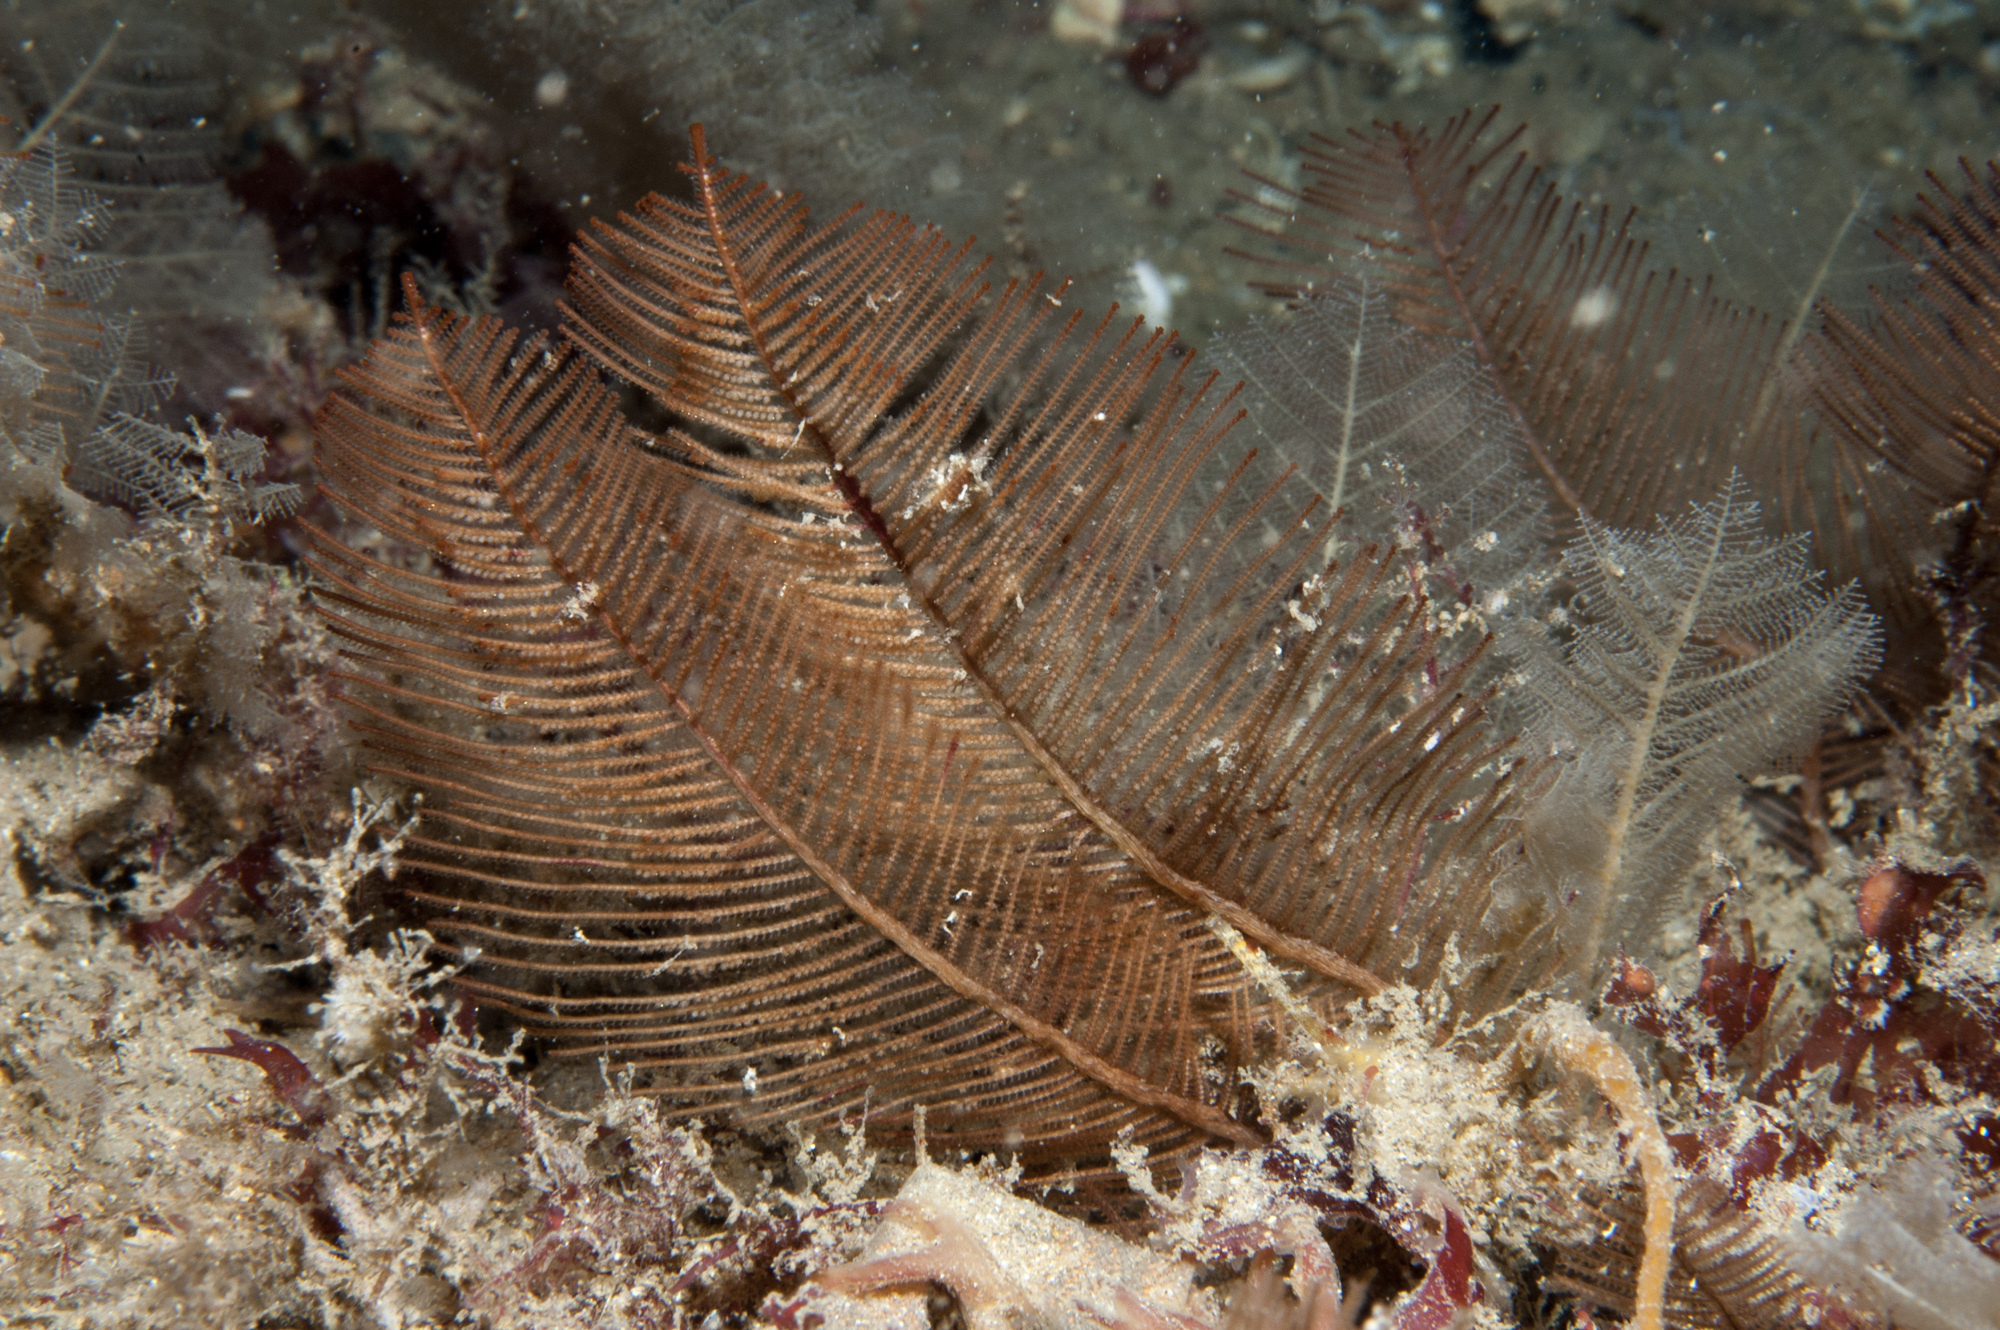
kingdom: Animalia
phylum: Cnidaria
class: Hydrozoa
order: Leptothecata
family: Sertulariidae
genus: Diphasia
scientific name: Diphasia alata
